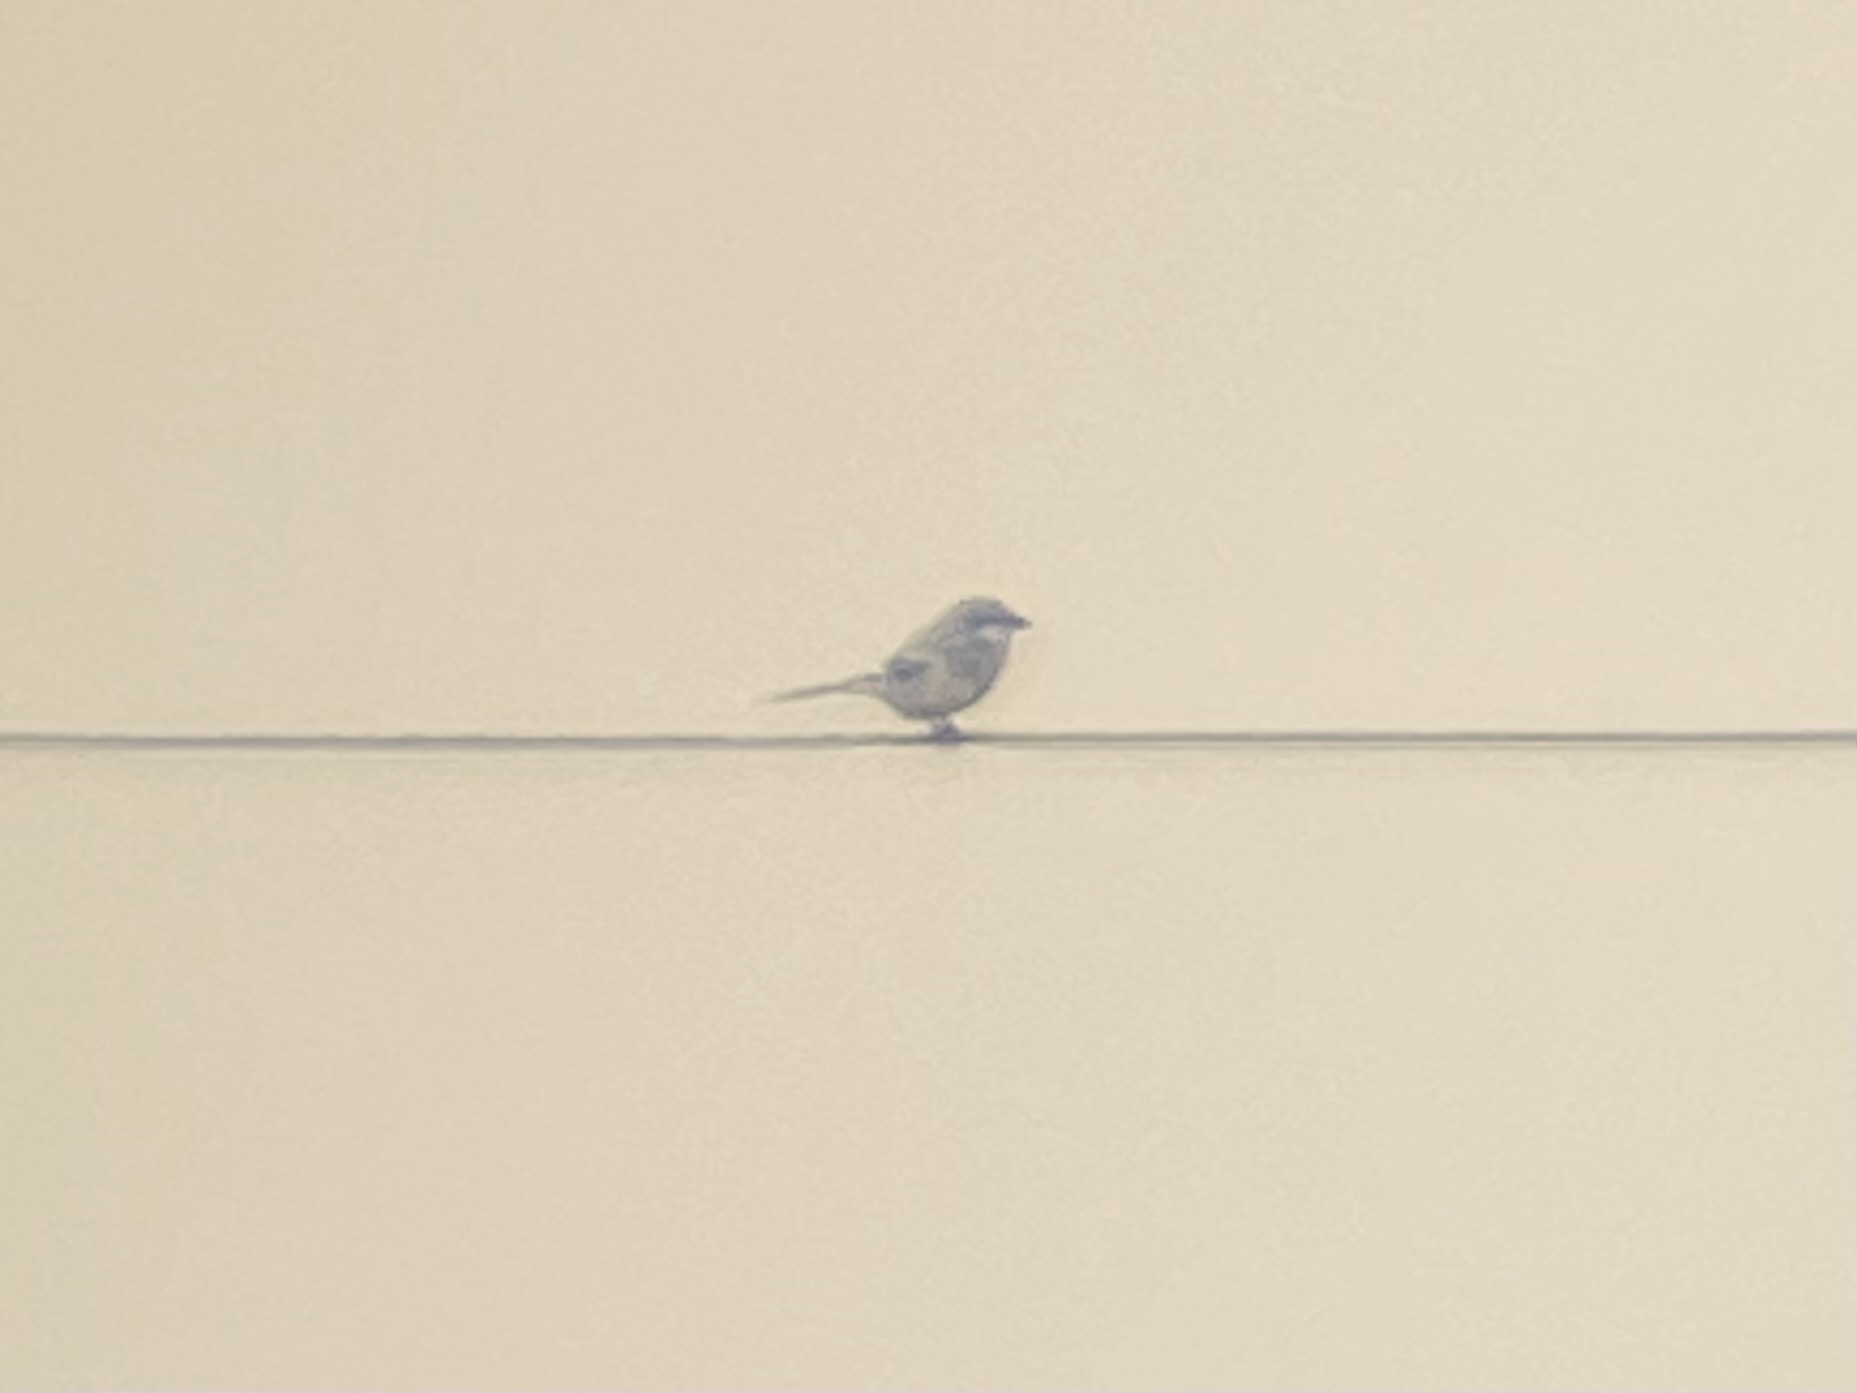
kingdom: Animalia
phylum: Chordata
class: Aves
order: Passeriformes
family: Laniidae
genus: Lanius
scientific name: Lanius ludovicianus
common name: Loggerhead shrike
